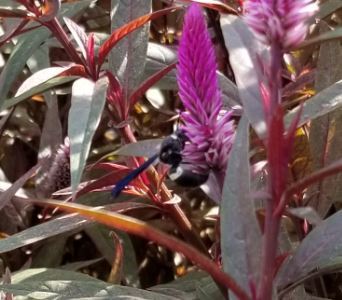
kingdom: Animalia
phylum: Arthropoda
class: Insecta
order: Hymenoptera
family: Eumenidae
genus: Monobia
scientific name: Monobia quadridens
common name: Four-toothed mason wasp
